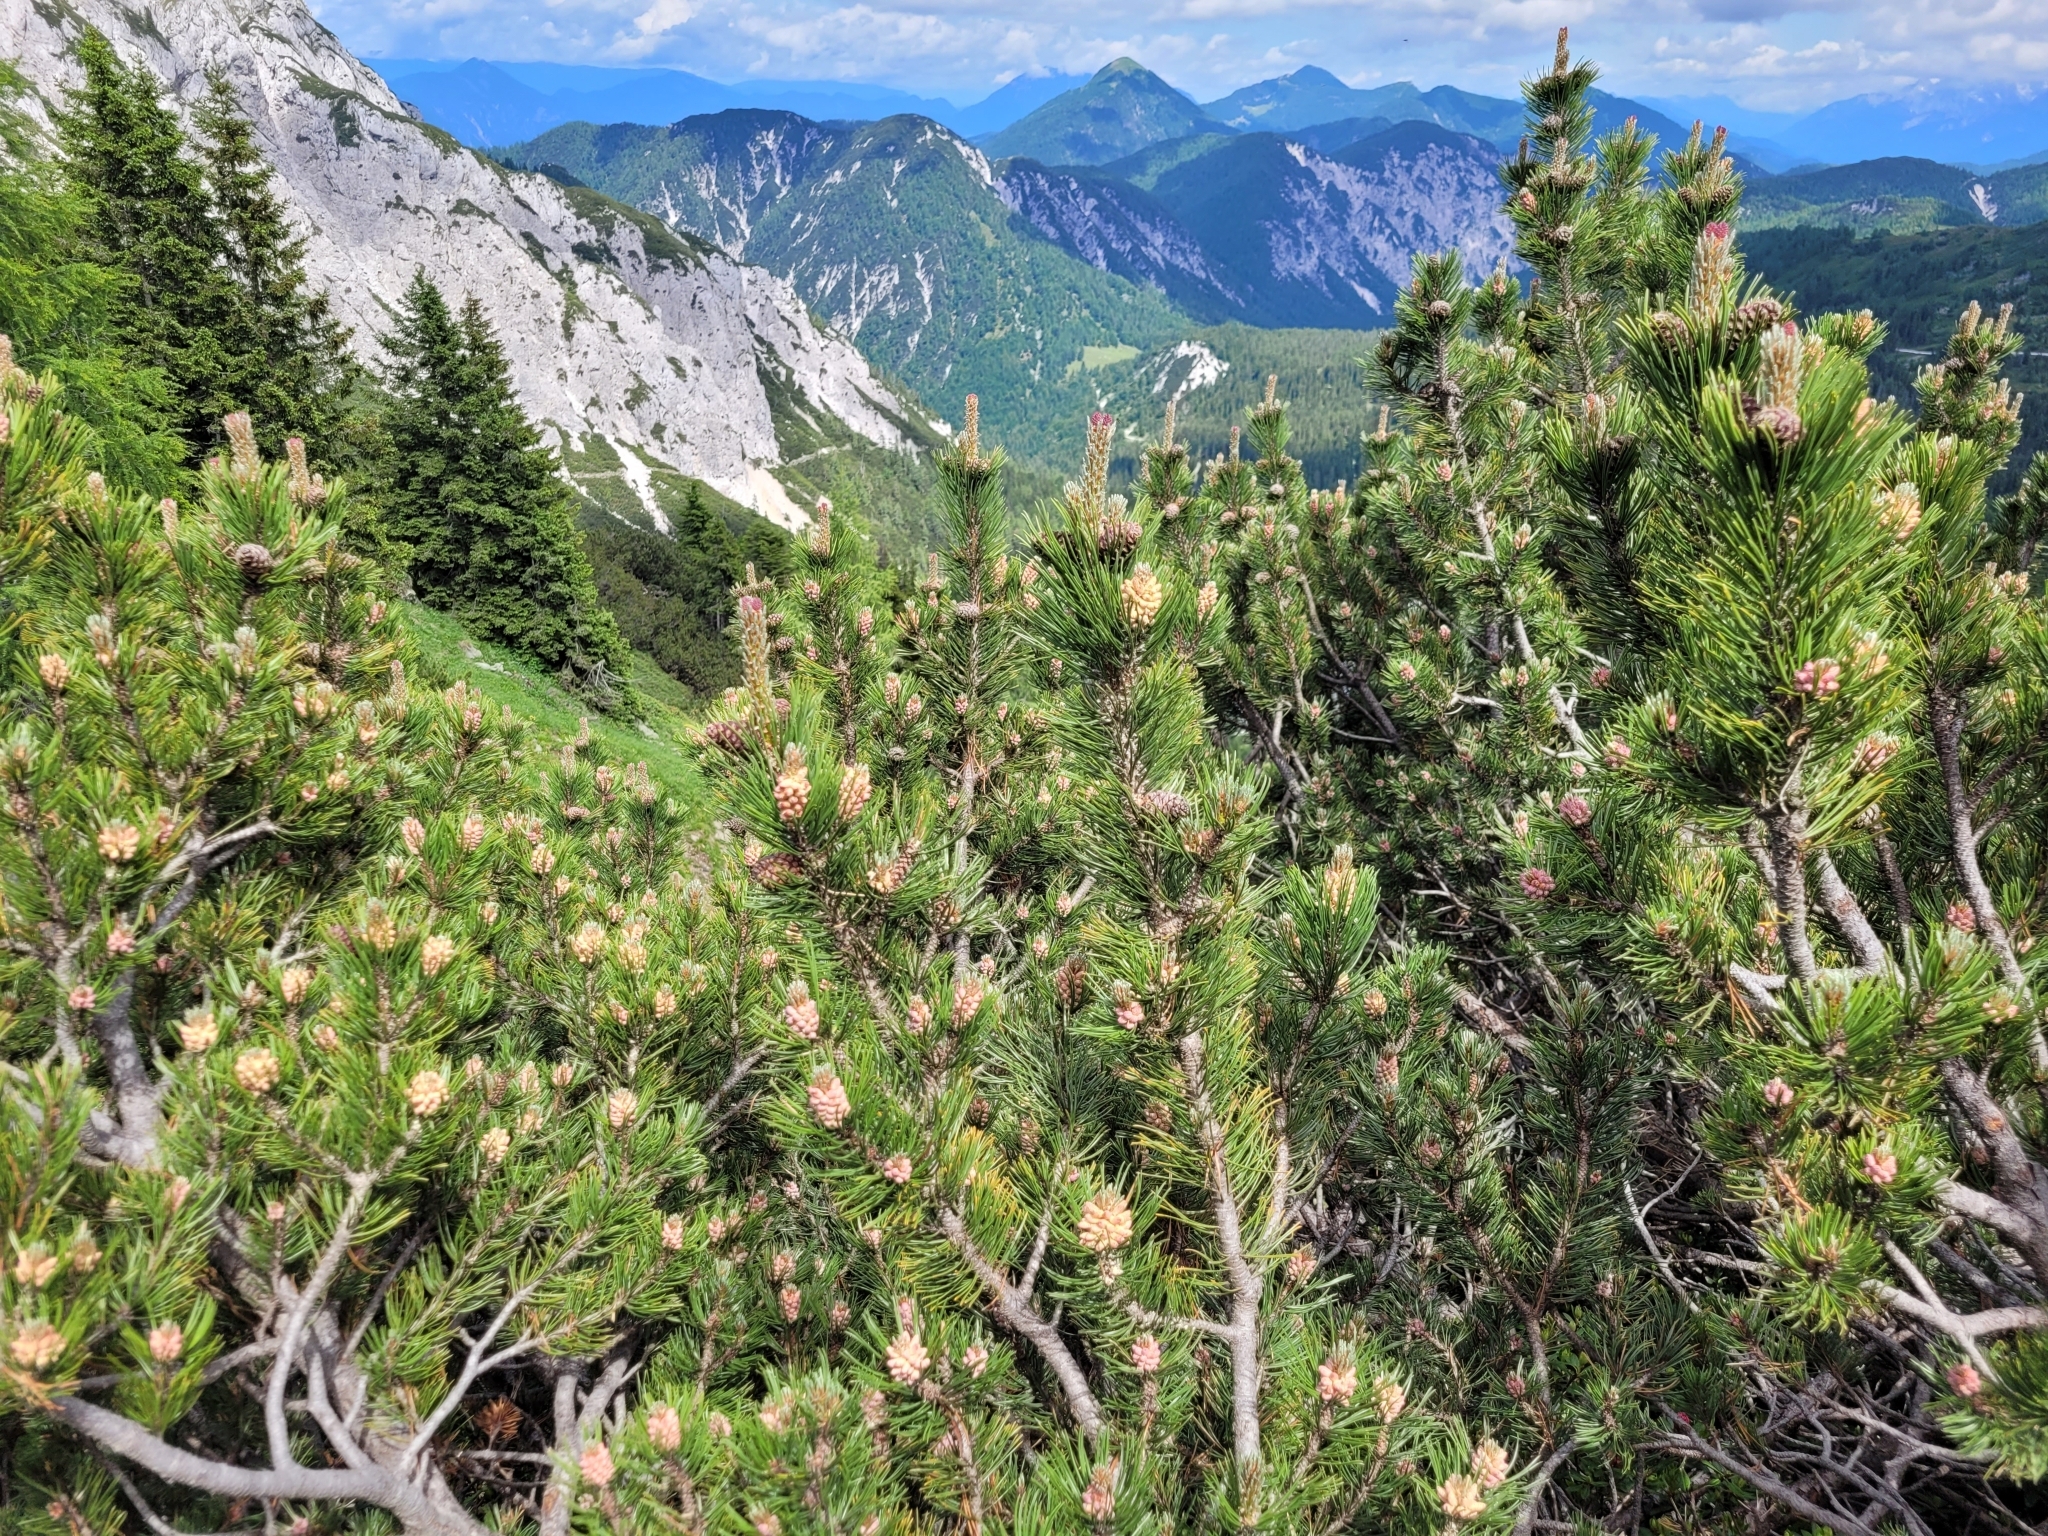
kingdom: Plantae
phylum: Tracheophyta
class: Pinopsida
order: Pinales
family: Pinaceae
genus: Pinus
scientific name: Pinus mugo
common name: Mugo pine
